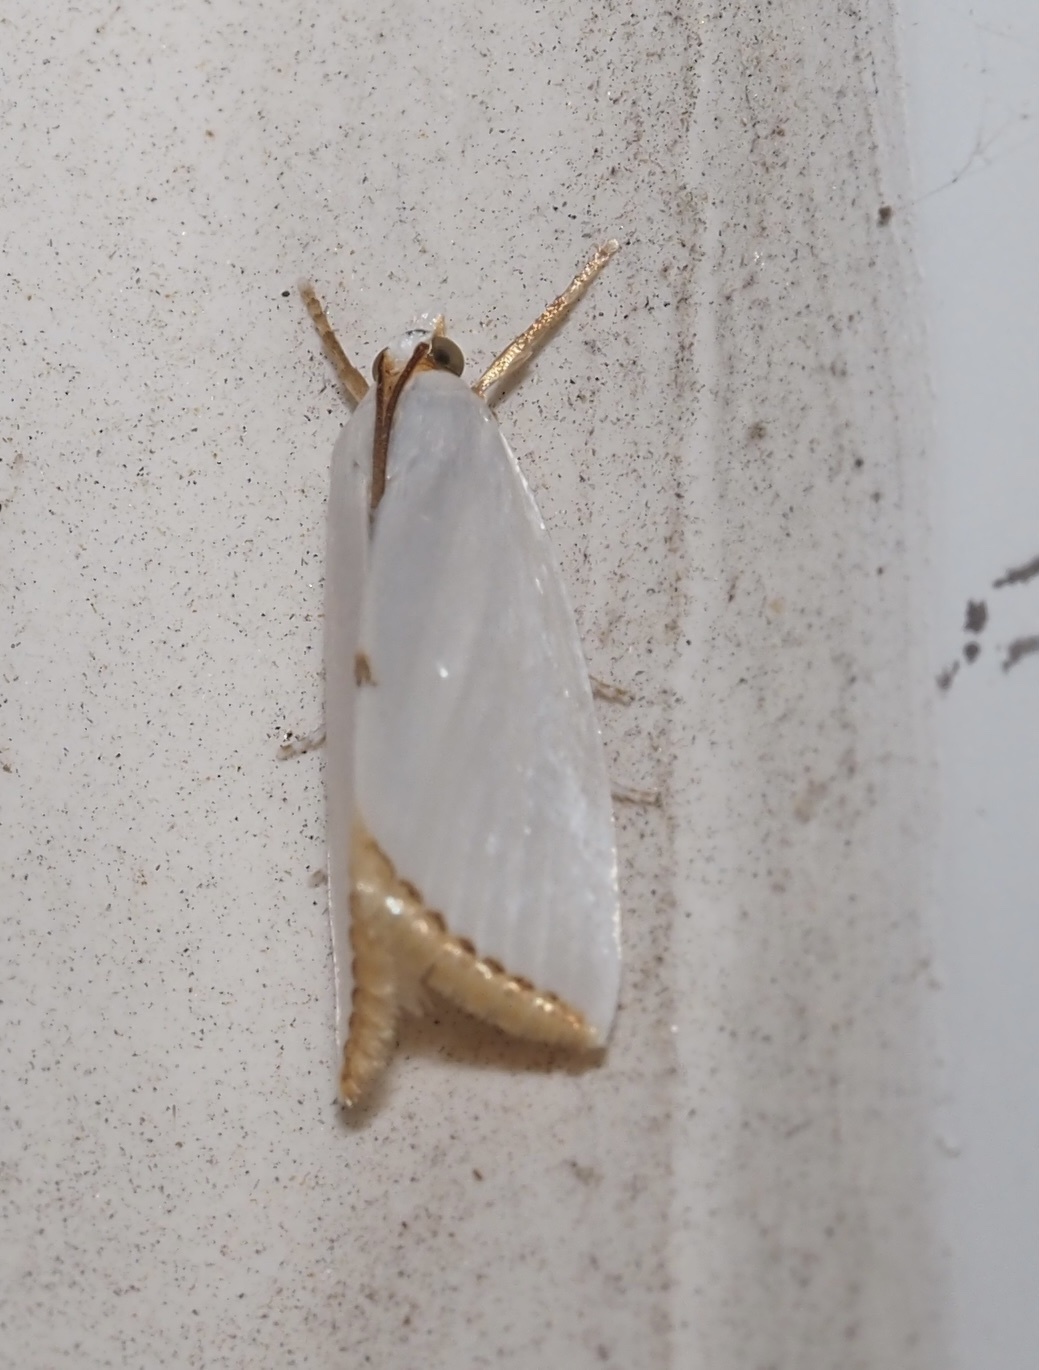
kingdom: Animalia
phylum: Arthropoda
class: Insecta
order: Lepidoptera
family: Crambidae
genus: Argyria
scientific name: Argyria nivalis
